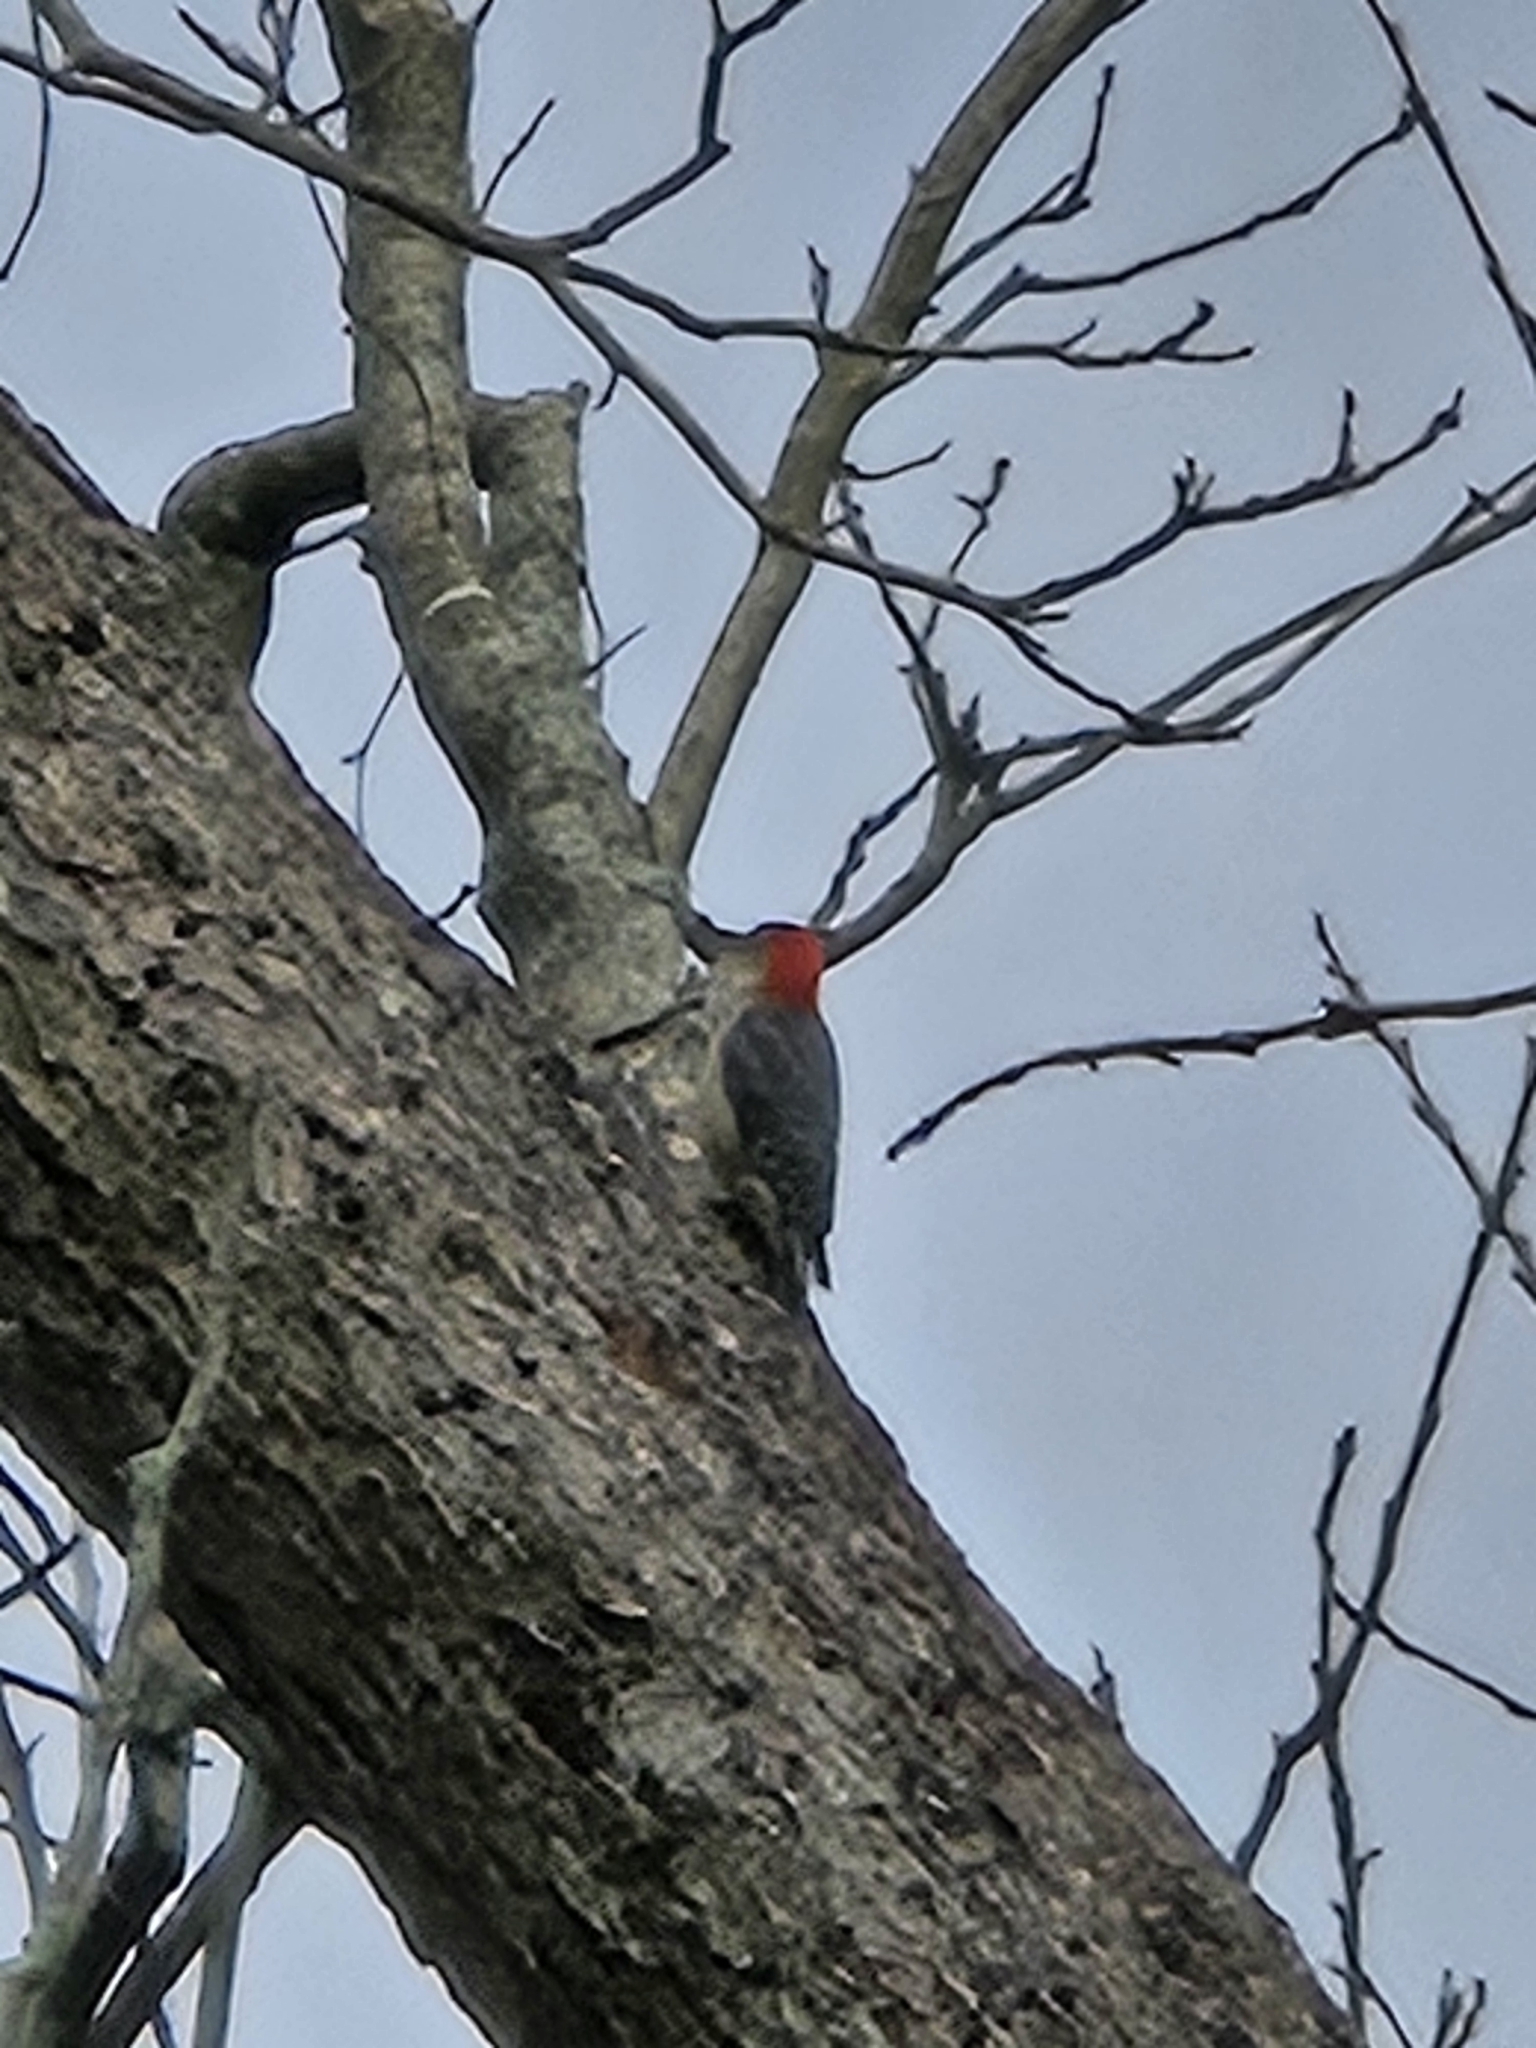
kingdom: Animalia
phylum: Chordata
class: Aves
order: Piciformes
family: Picidae
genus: Melanerpes
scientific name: Melanerpes carolinus
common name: Red-bellied woodpecker
